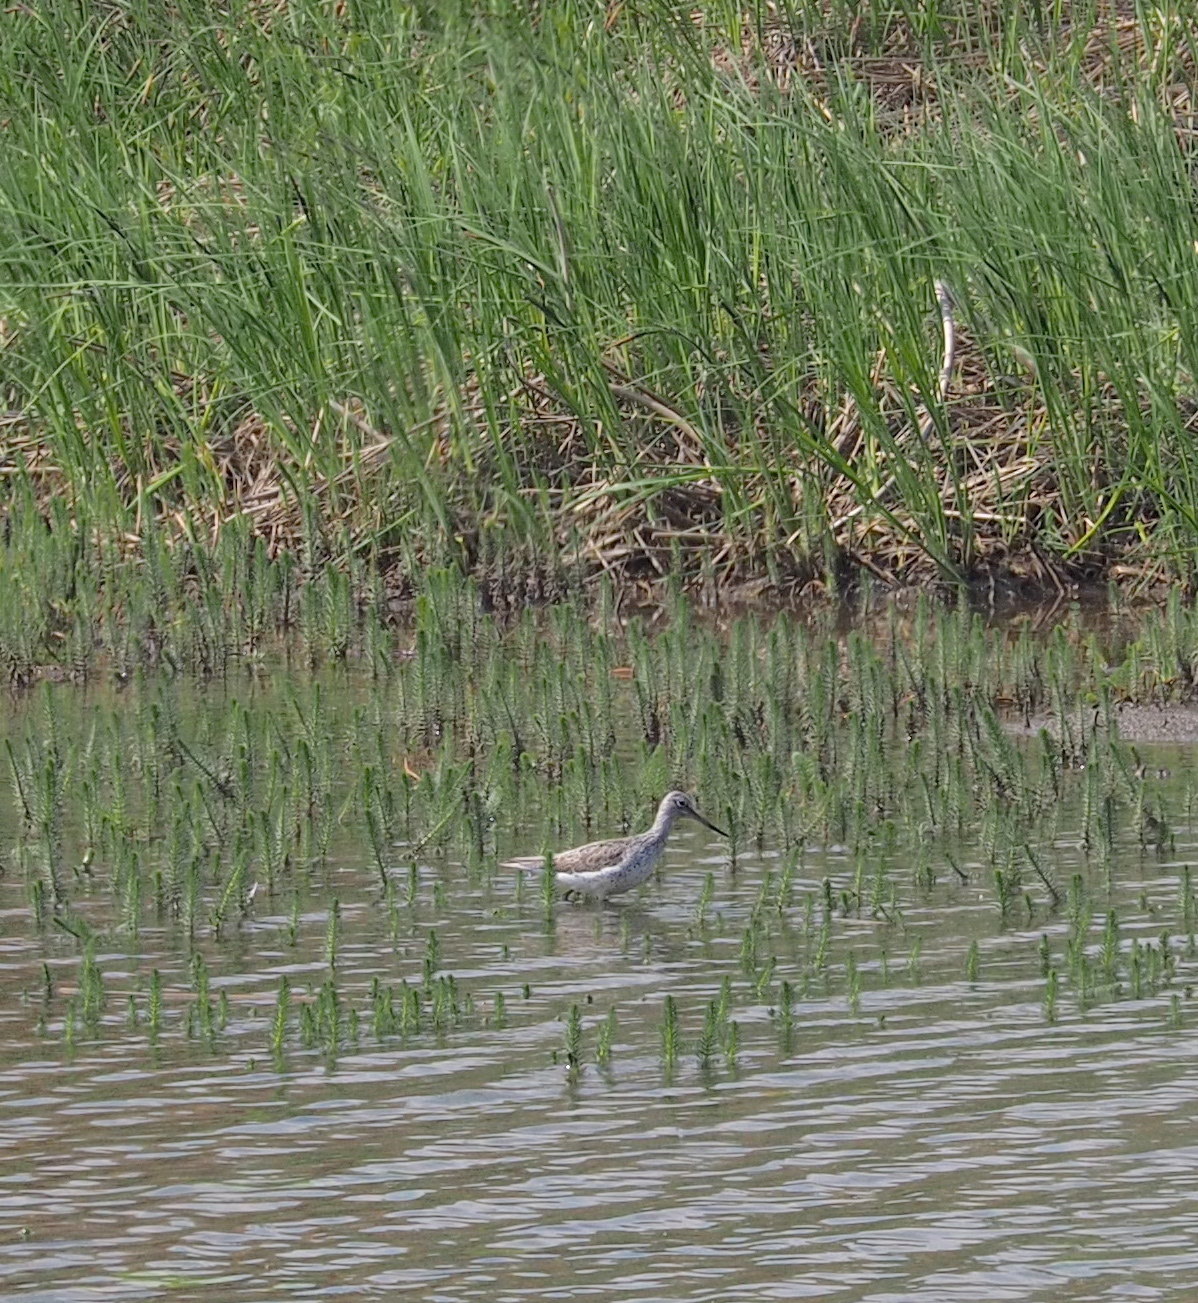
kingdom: Animalia
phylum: Chordata
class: Aves
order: Charadriiformes
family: Scolopacidae
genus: Tringa
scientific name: Tringa nebularia
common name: Common greenshank
